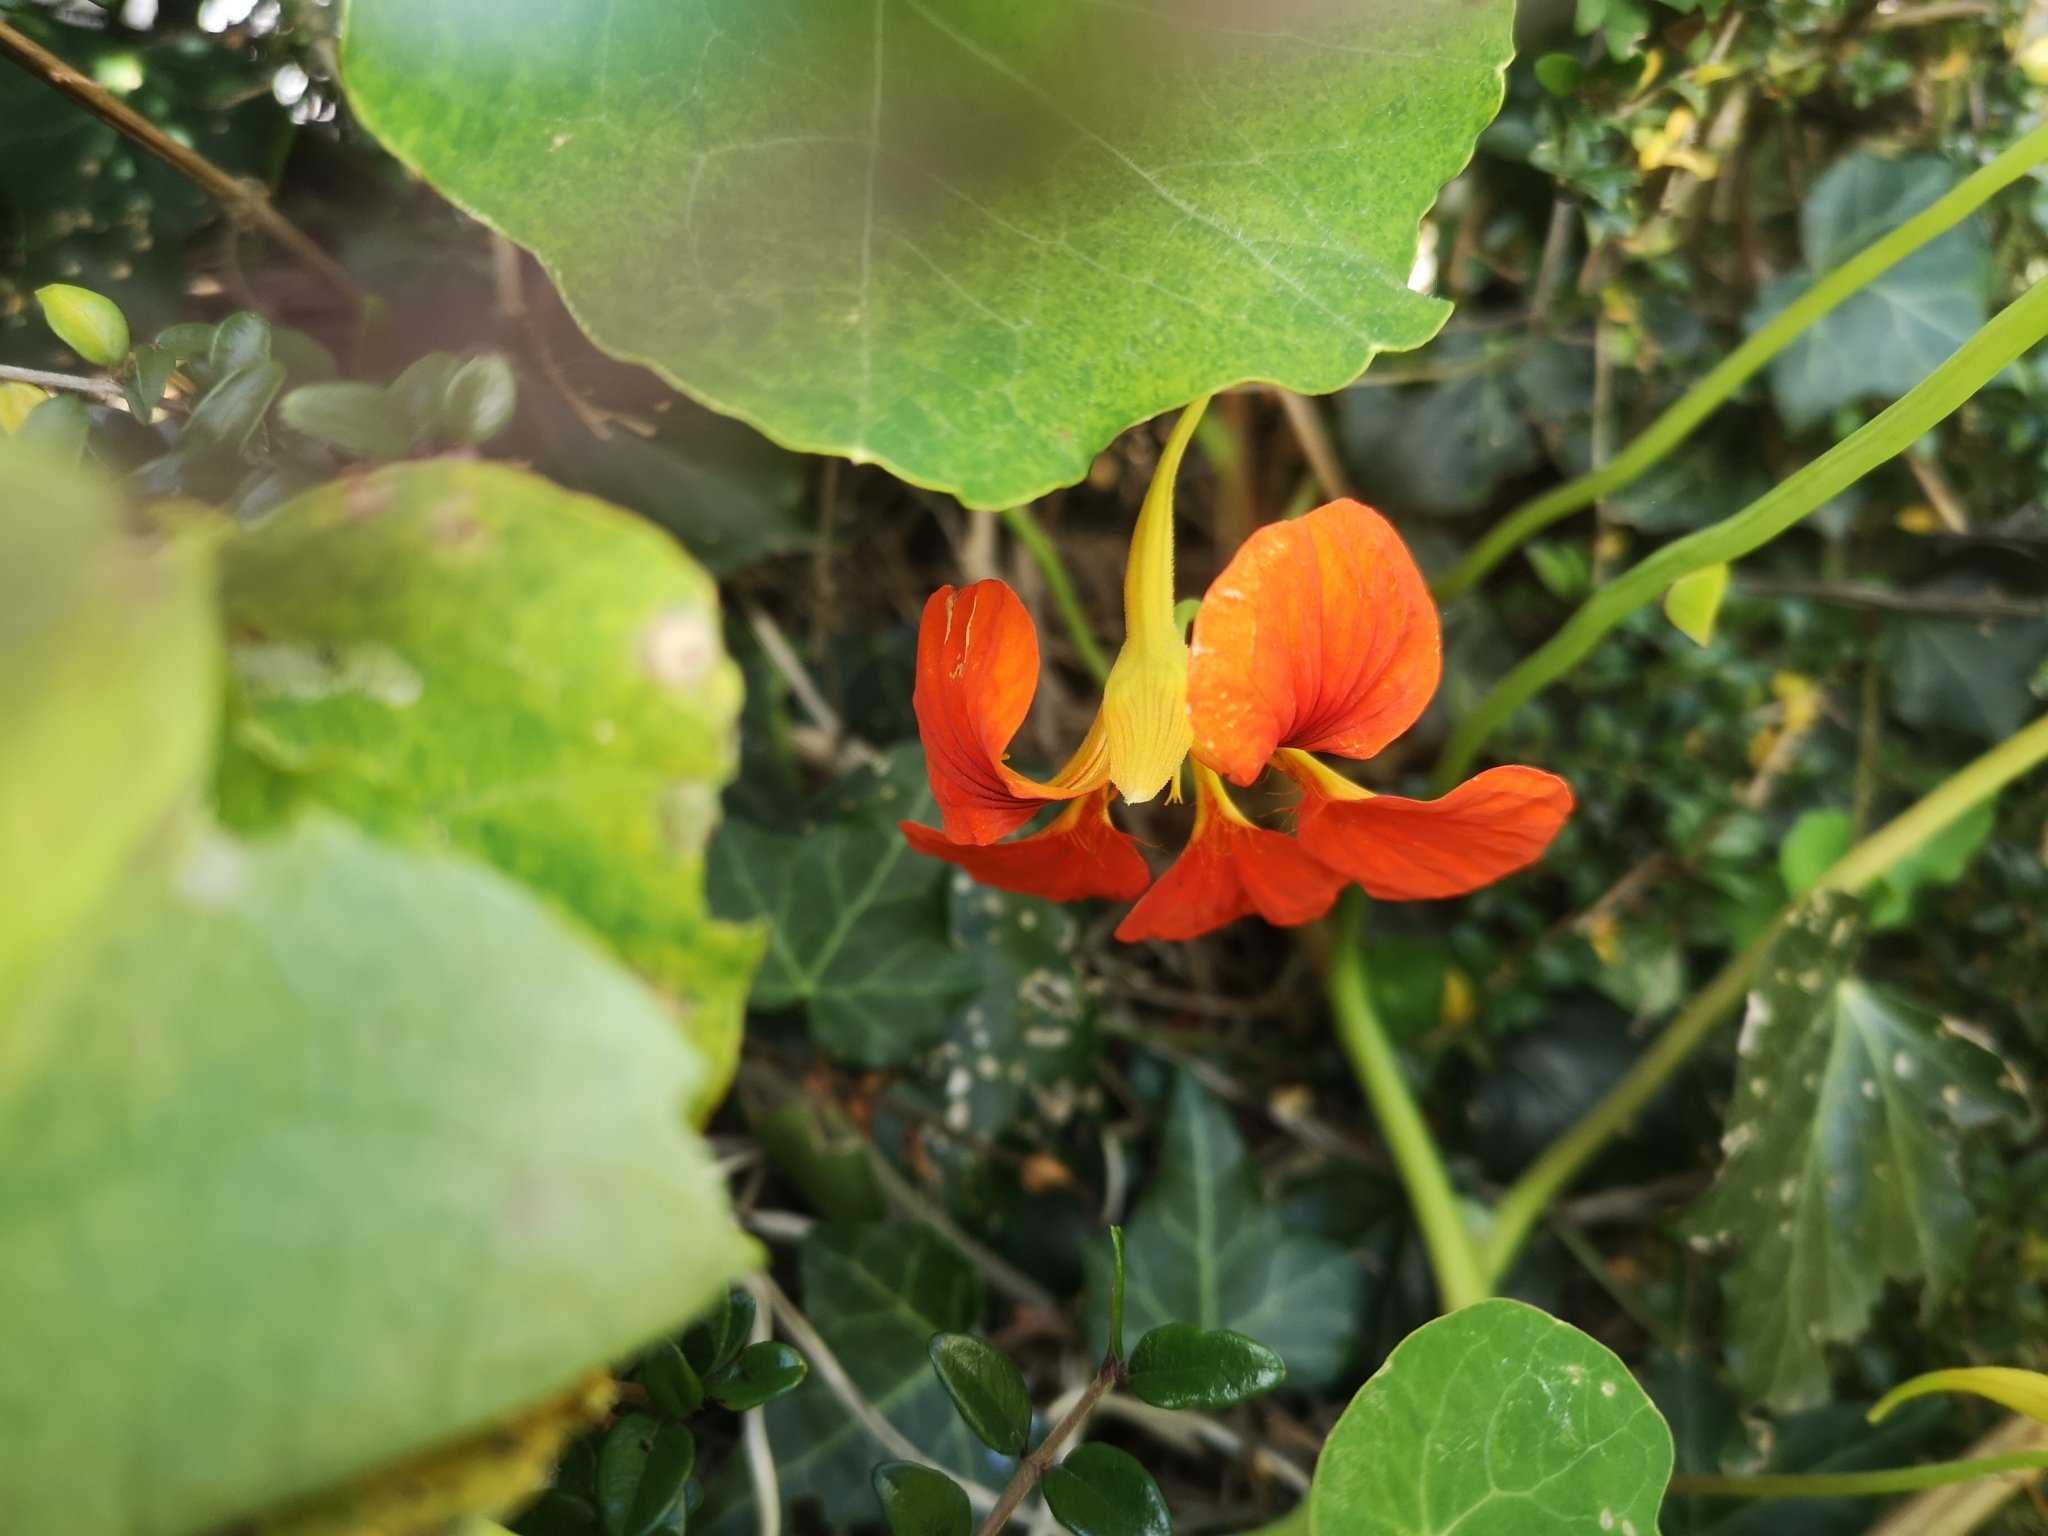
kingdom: Plantae
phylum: Tracheophyta
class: Magnoliopsida
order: Brassicales
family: Tropaeolaceae
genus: Tropaeolum
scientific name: Tropaeolum majus
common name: Nasturtium
